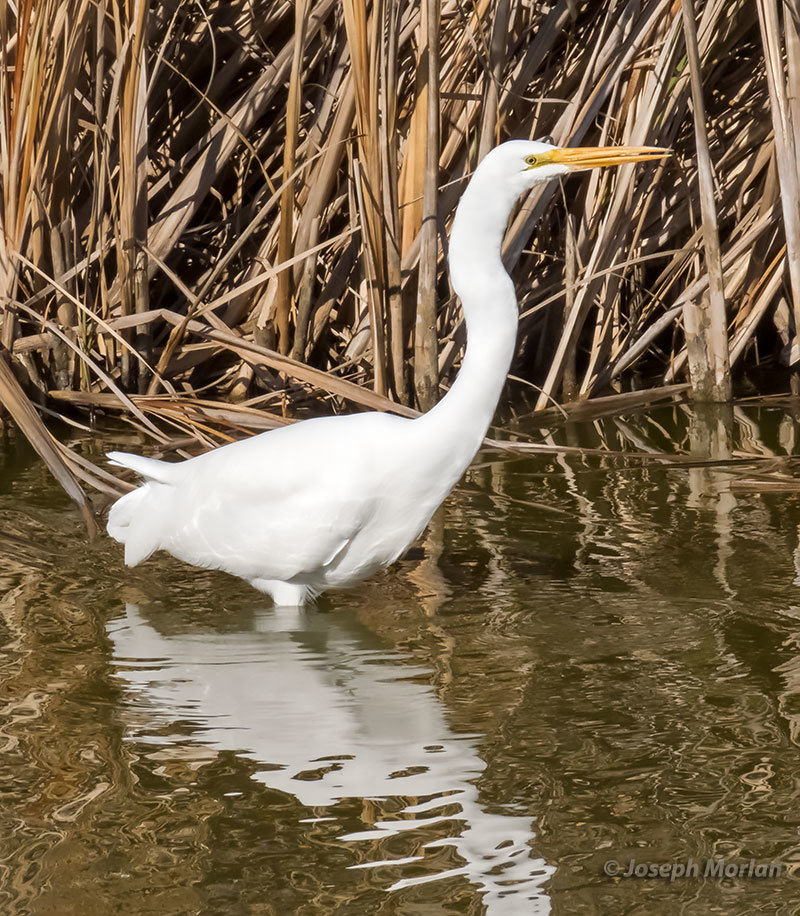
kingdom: Animalia
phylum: Chordata
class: Aves
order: Pelecaniformes
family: Ardeidae
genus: Ardea
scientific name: Ardea alba
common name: Great egret
